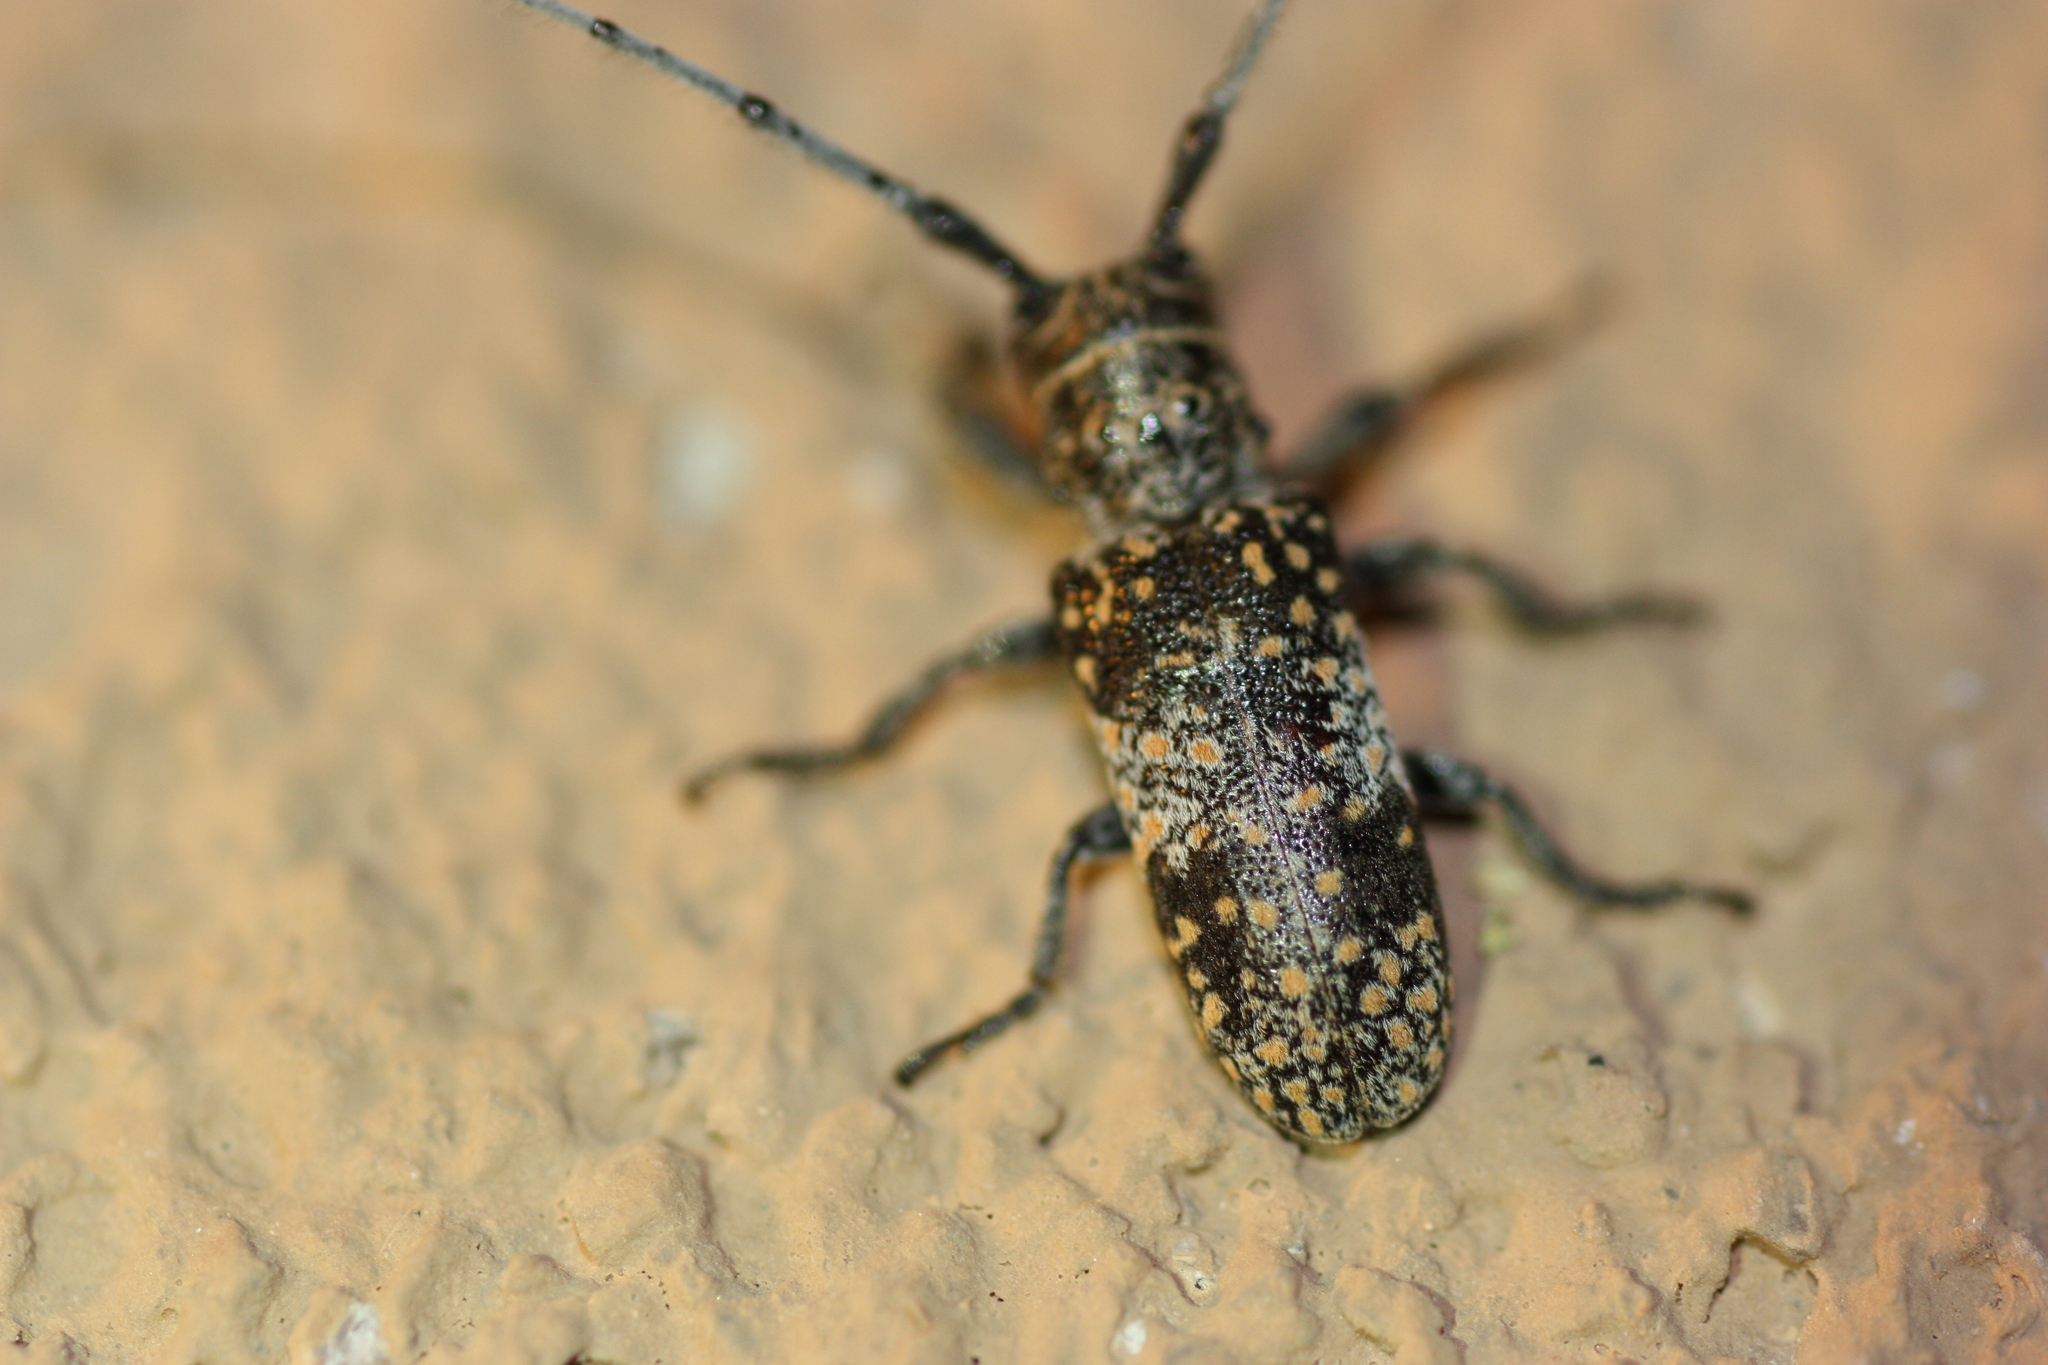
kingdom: Animalia
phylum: Arthropoda
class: Insecta
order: Coleoptera
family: Cerambycidae
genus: Oncideres
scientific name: Oncideres rhodosticta
